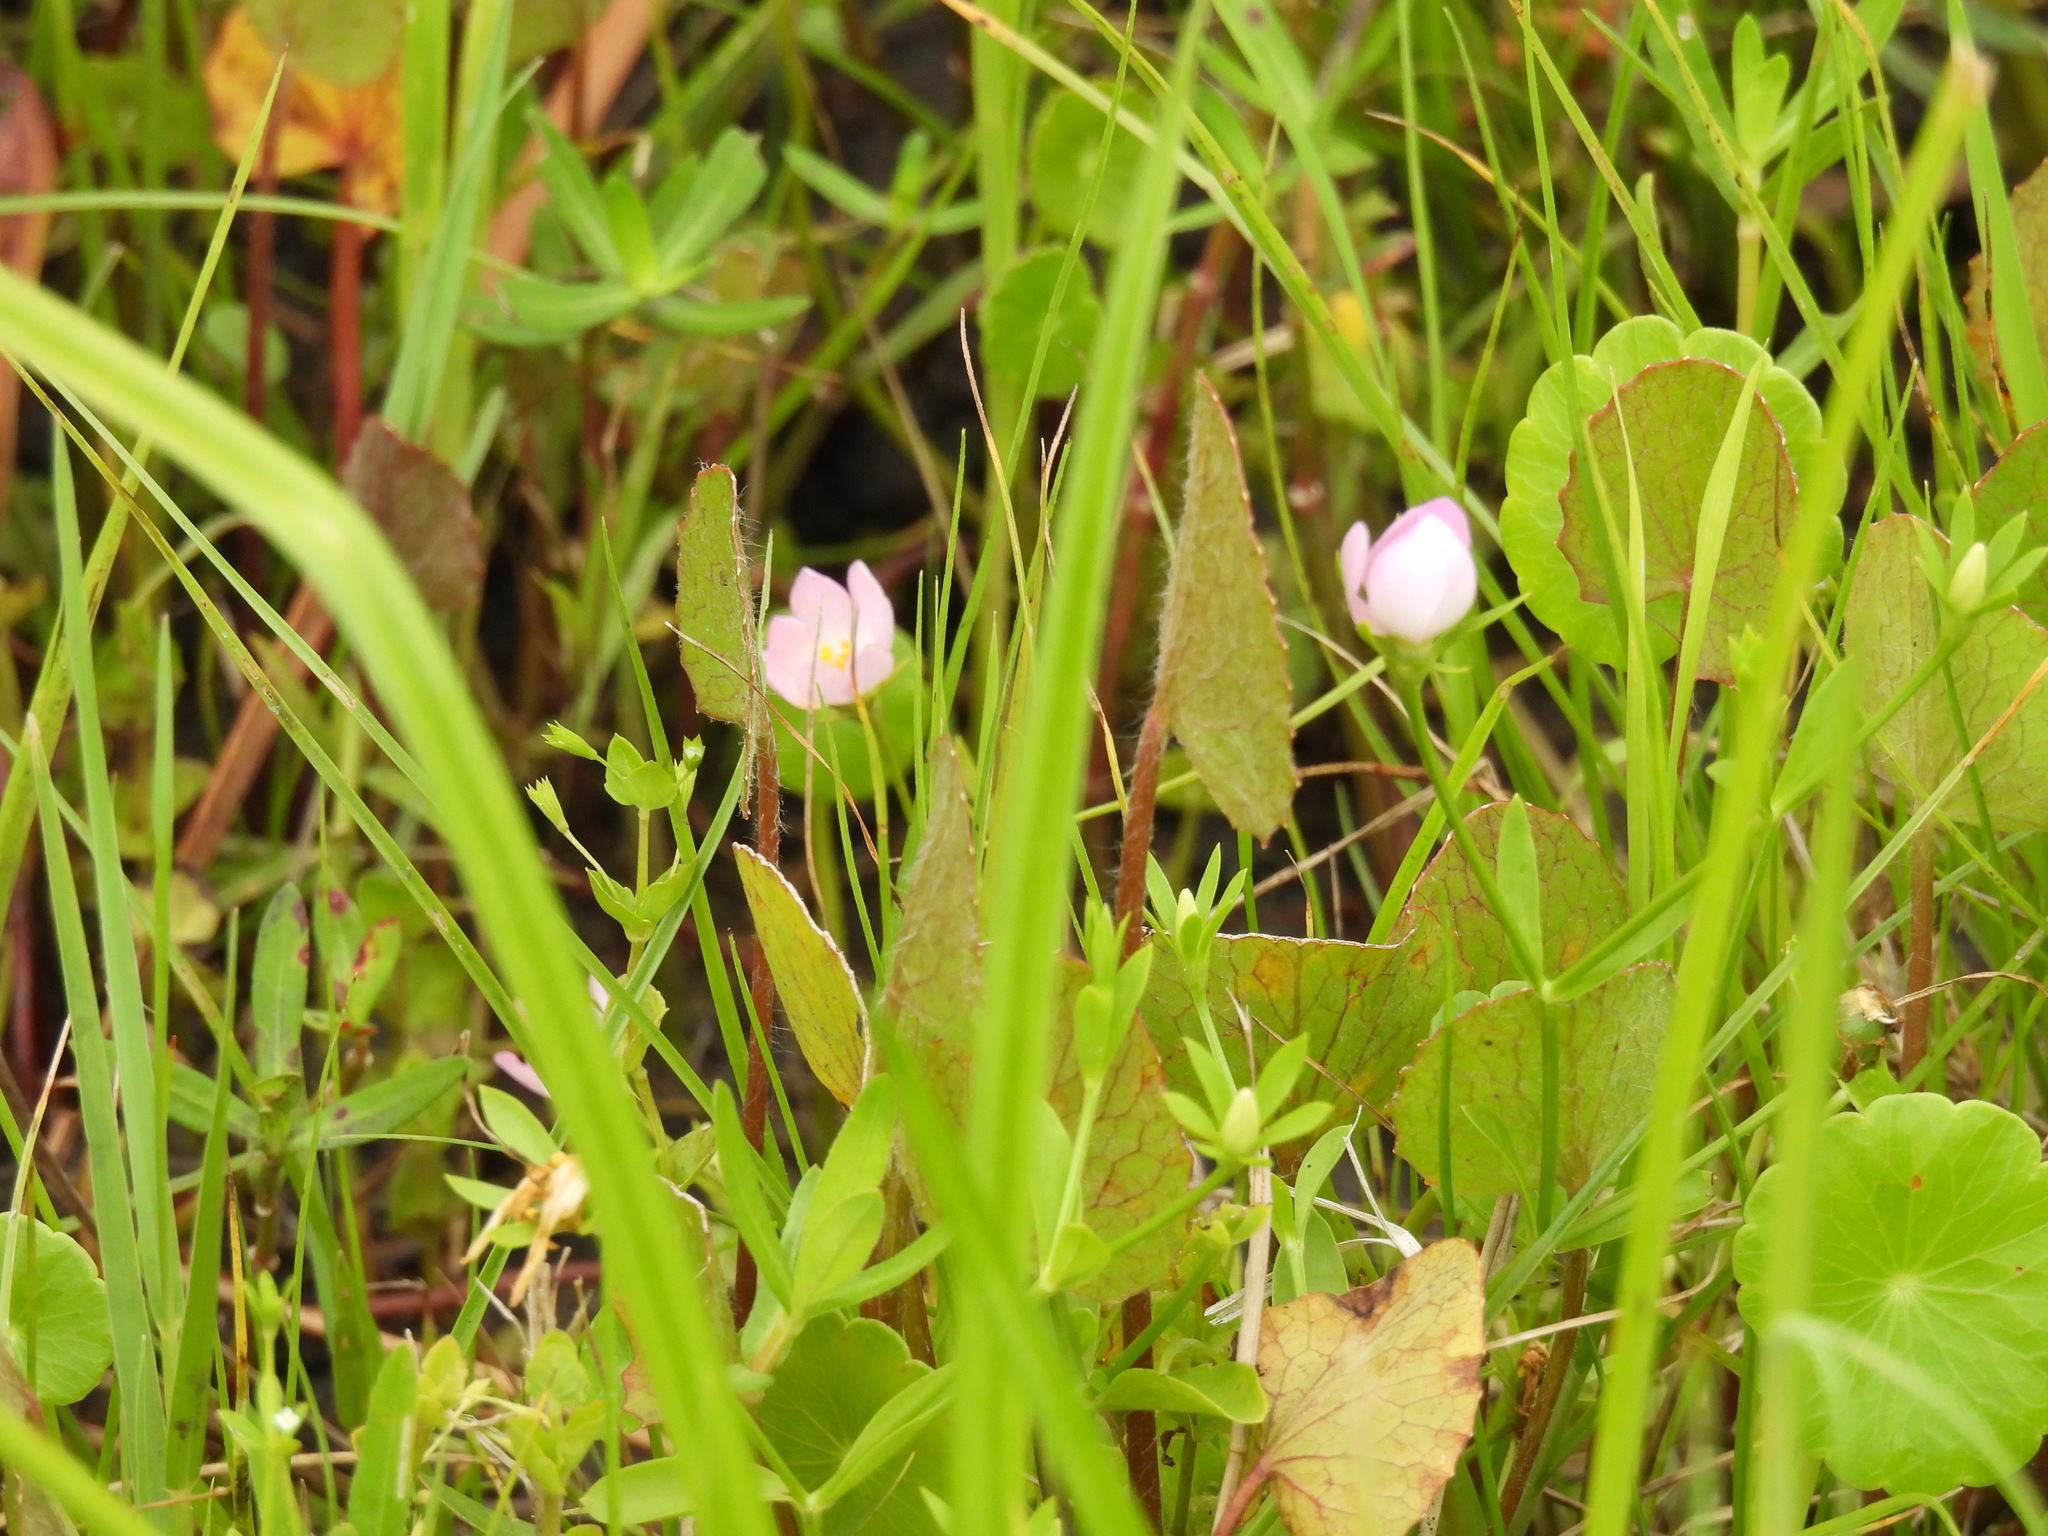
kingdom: Plantae
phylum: Tracheophyta
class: Magnoliopsida
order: Gentianales
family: Gentianaceae
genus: Sabatia
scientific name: Sabatia calycina
